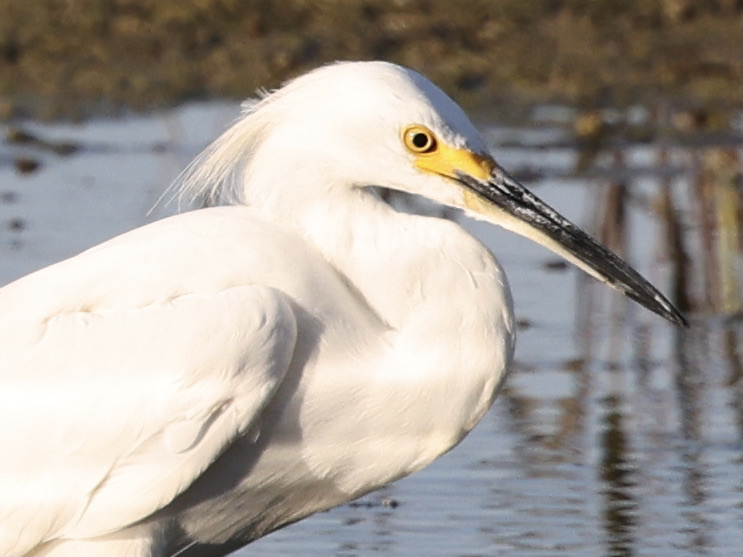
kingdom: Animalia
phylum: Chordata
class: Aves
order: Pelecaniformes
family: Ardeidae
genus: Egretta
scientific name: Egretta thula
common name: Snowy egret
